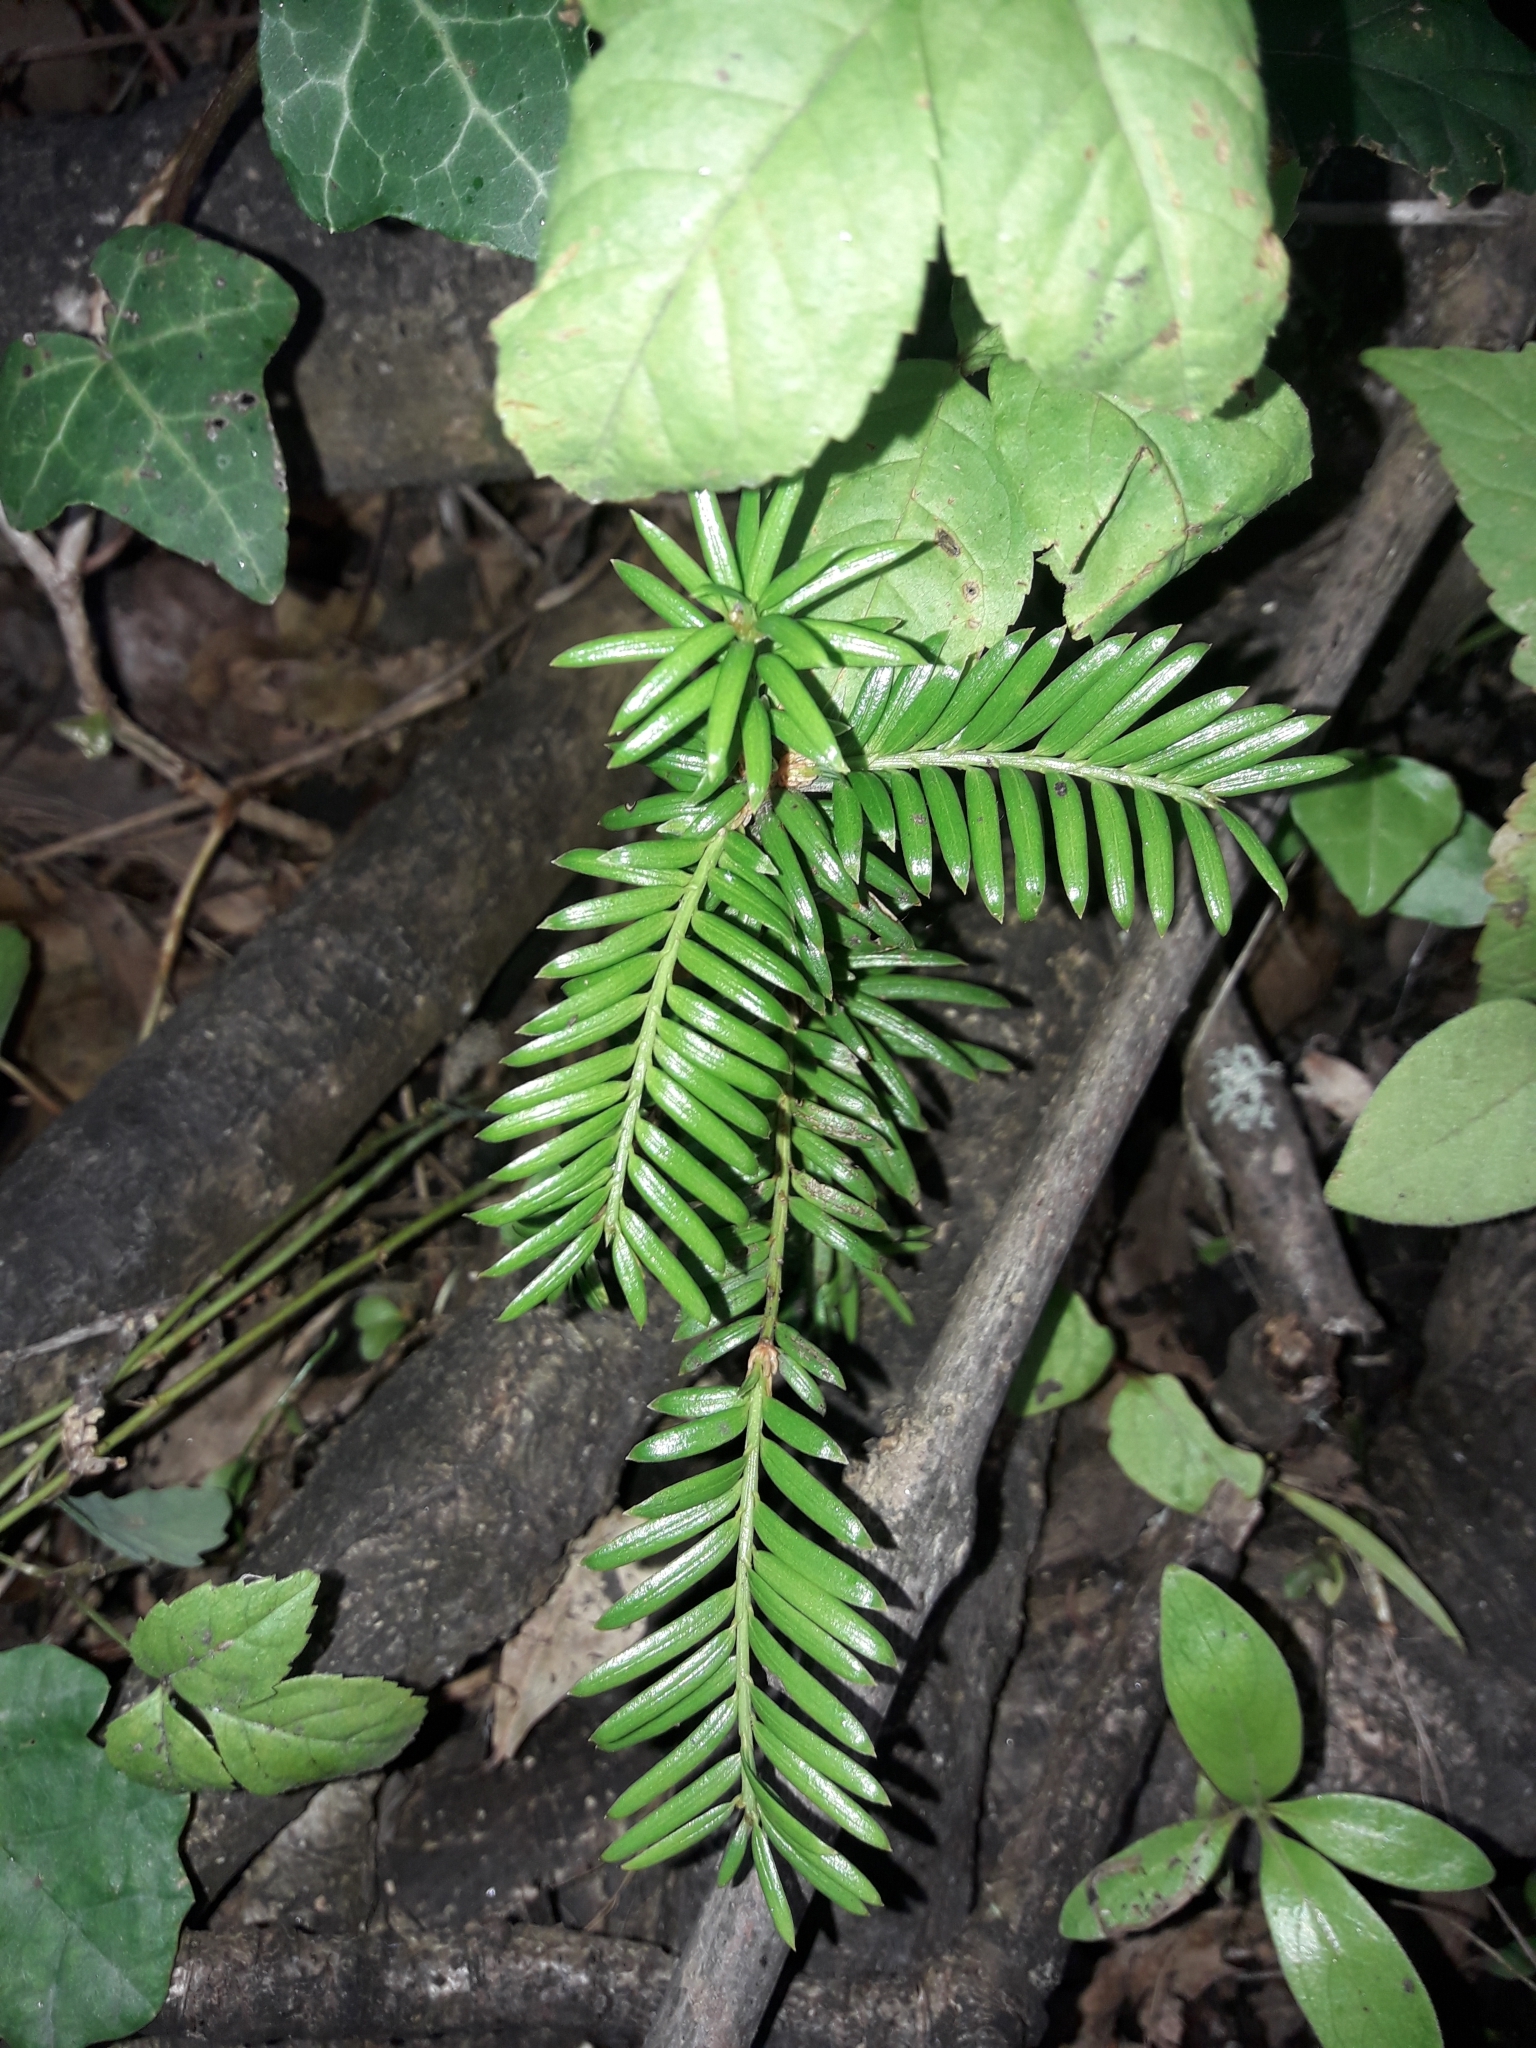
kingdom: Plantae
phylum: Tracheophyta
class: Pinopsida
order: Pinales
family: Taxaceae
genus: Taxus
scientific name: Taxus baccata
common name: Yew
